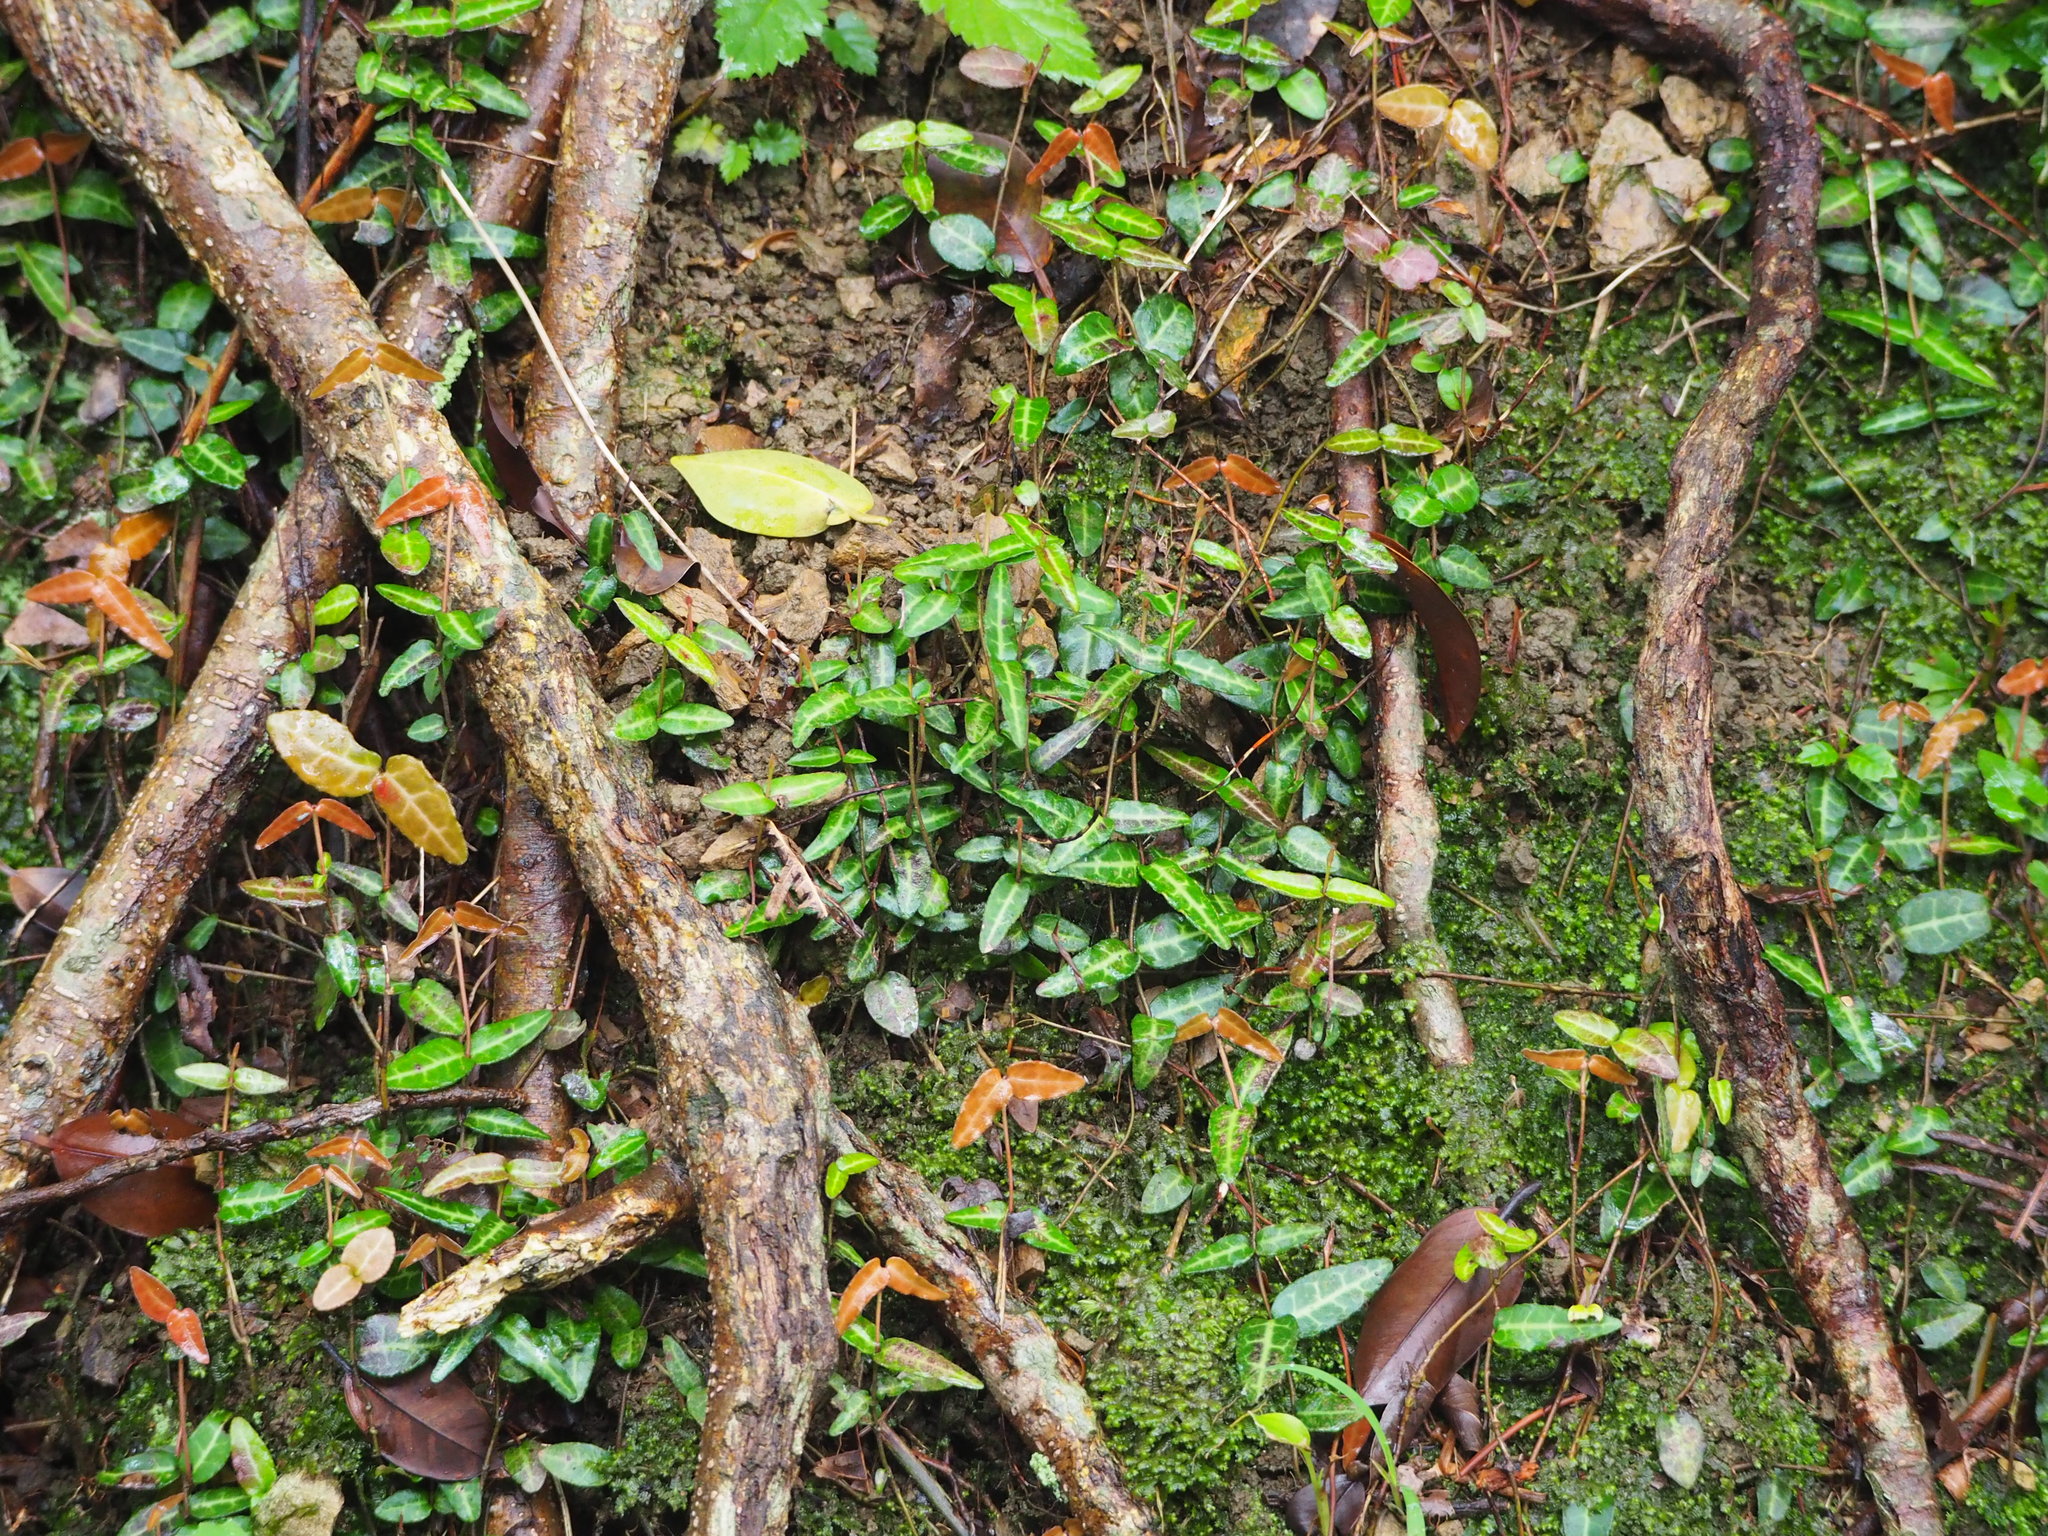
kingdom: Plantae
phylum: Tracheophyta
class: Magnoliopsida
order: Gentianales
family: Apocynaceae
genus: Trachelospermum
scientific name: Trachelospermum jasminoides
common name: Confederate jasmine
